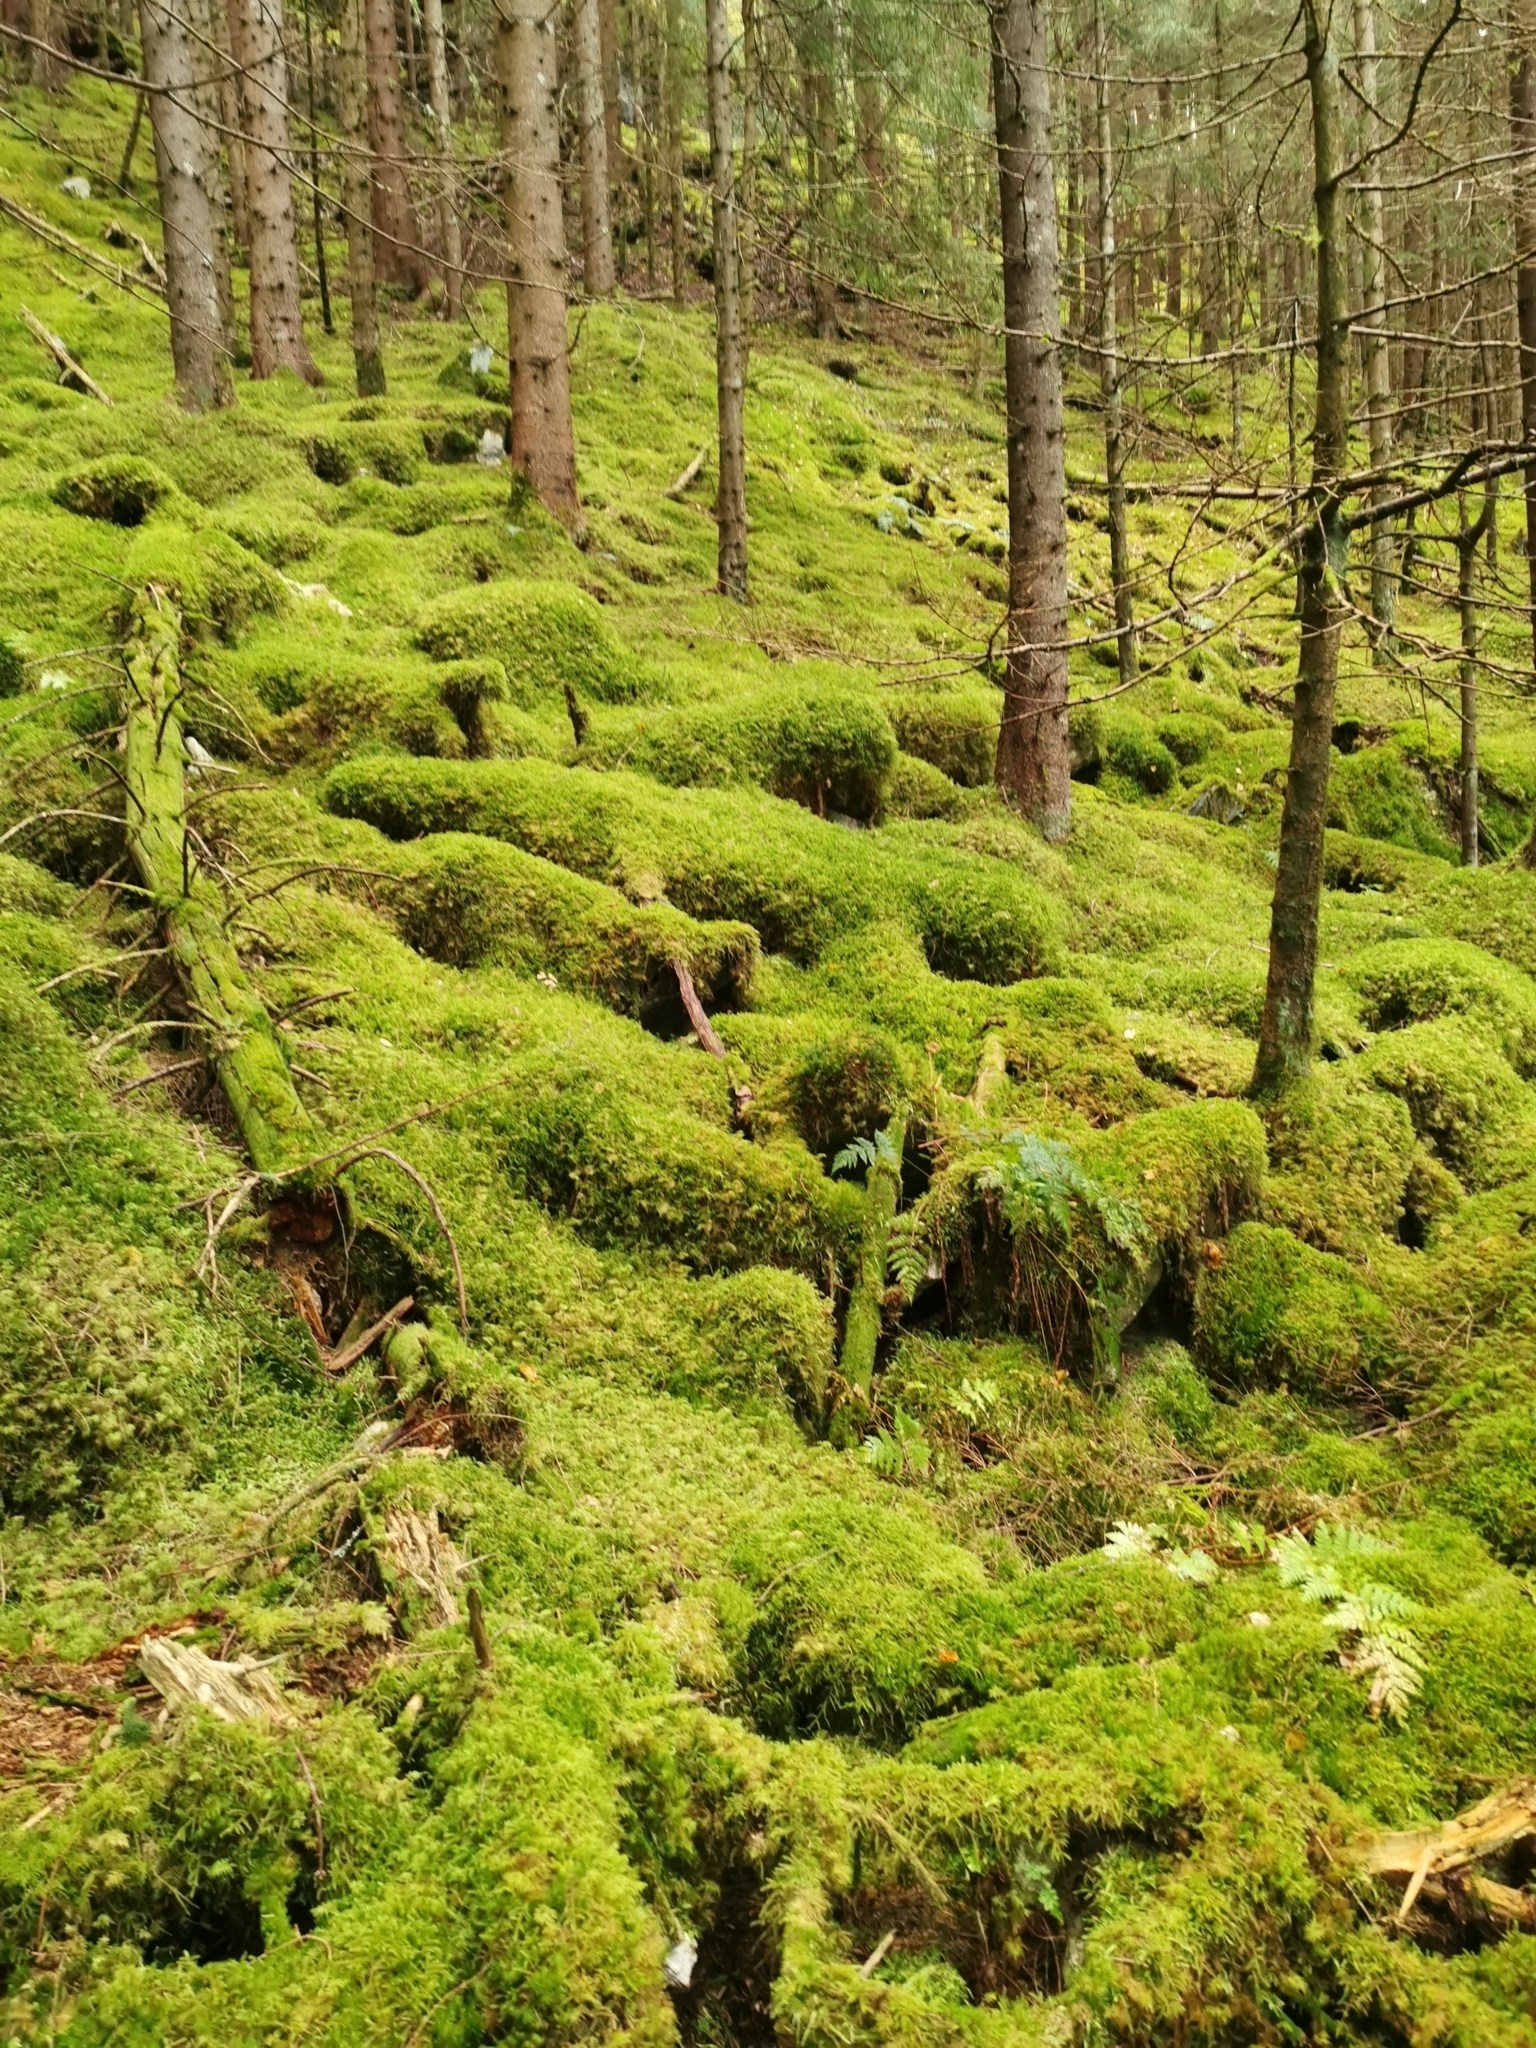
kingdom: Plantae
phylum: Bryophyta
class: Bryopsida
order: Hypnales
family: Hylocomiaceae
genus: Rhytidiadelphus
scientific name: Rhytidiadelphus loreus
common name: Lanky moss
